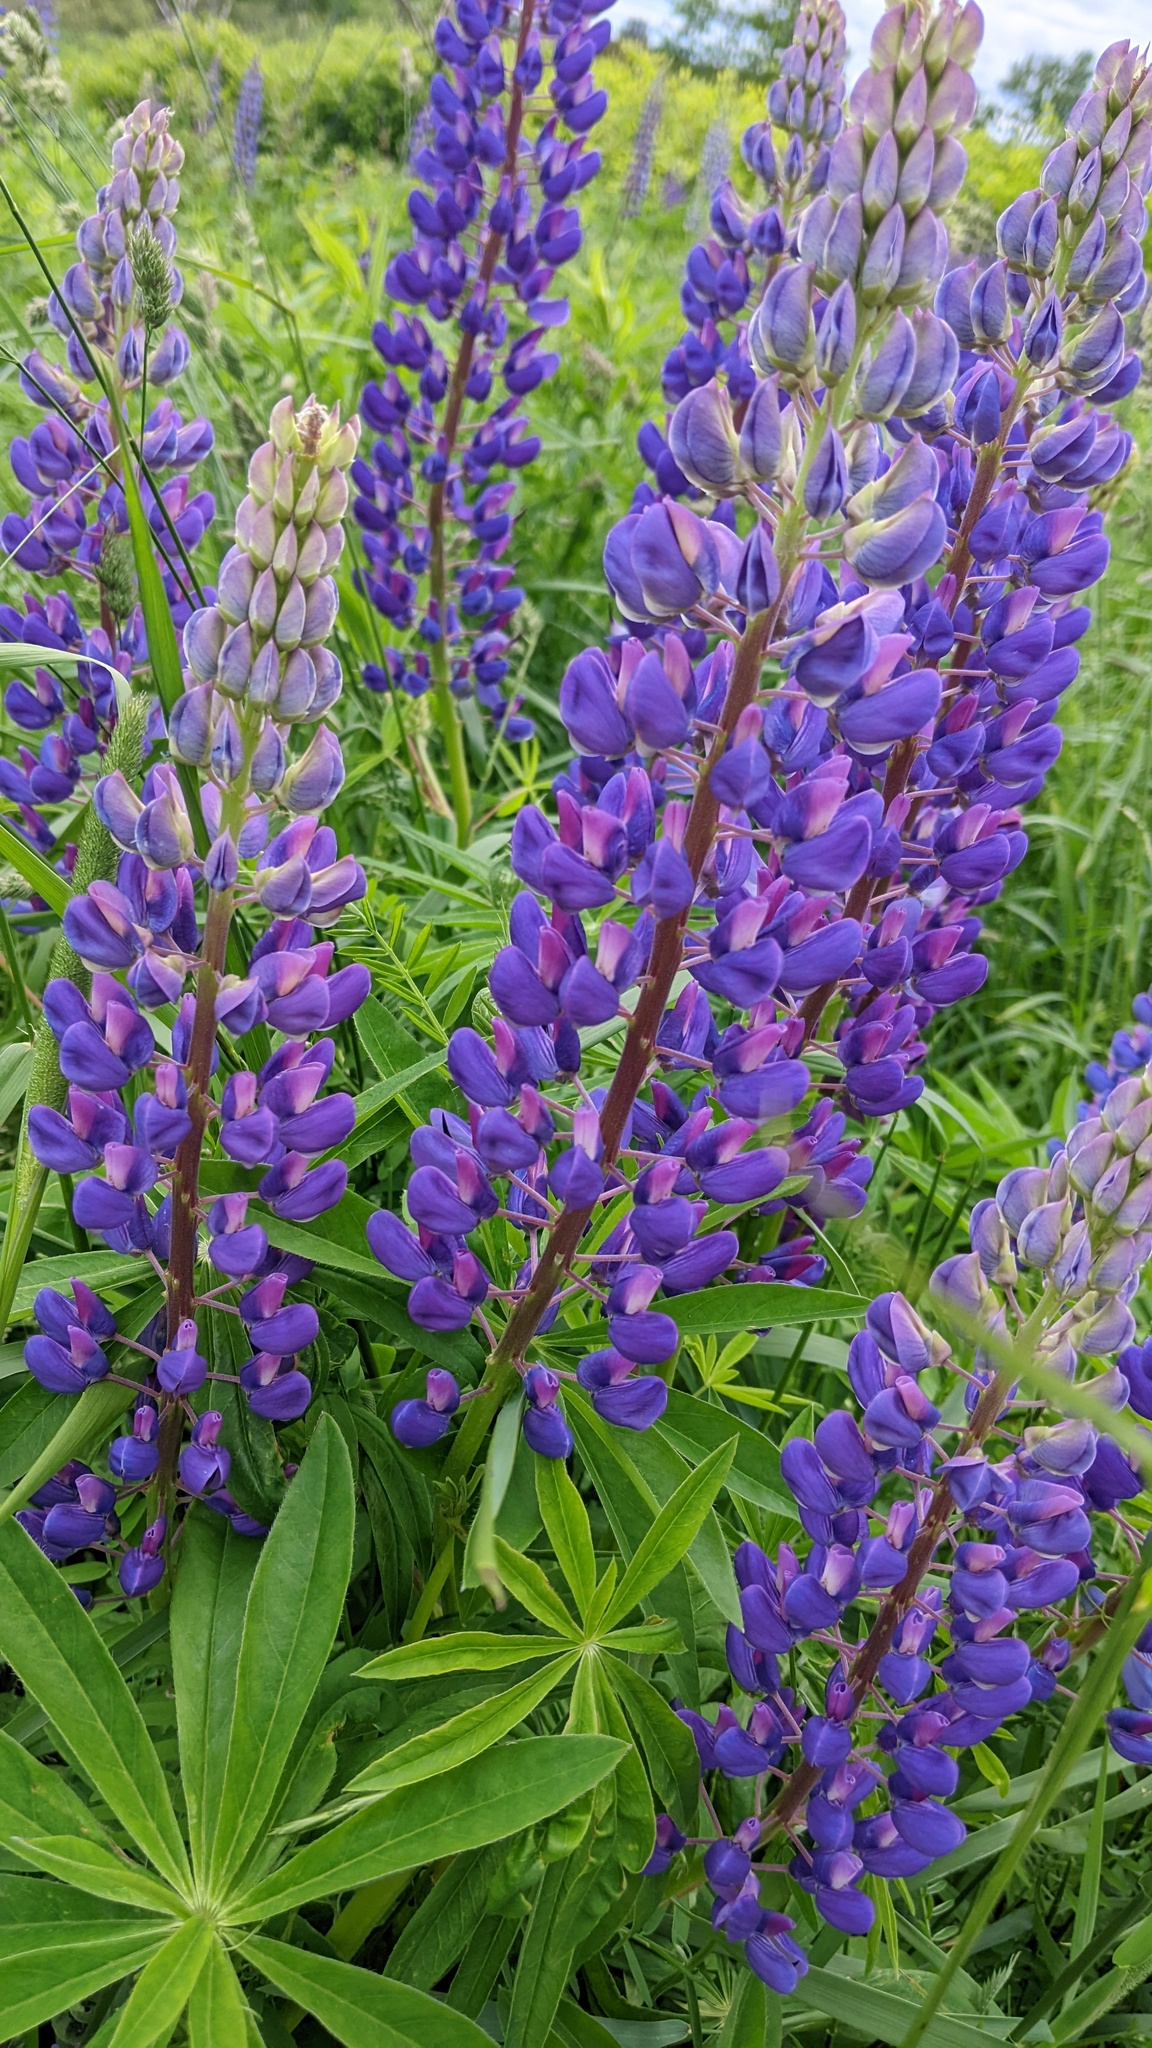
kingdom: Plantae
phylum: Tracheophyta
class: Magnoliopsida
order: Fabales
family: Fabaceae
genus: Lupinus
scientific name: Lupinus polyphyllus
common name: Garden lupin
